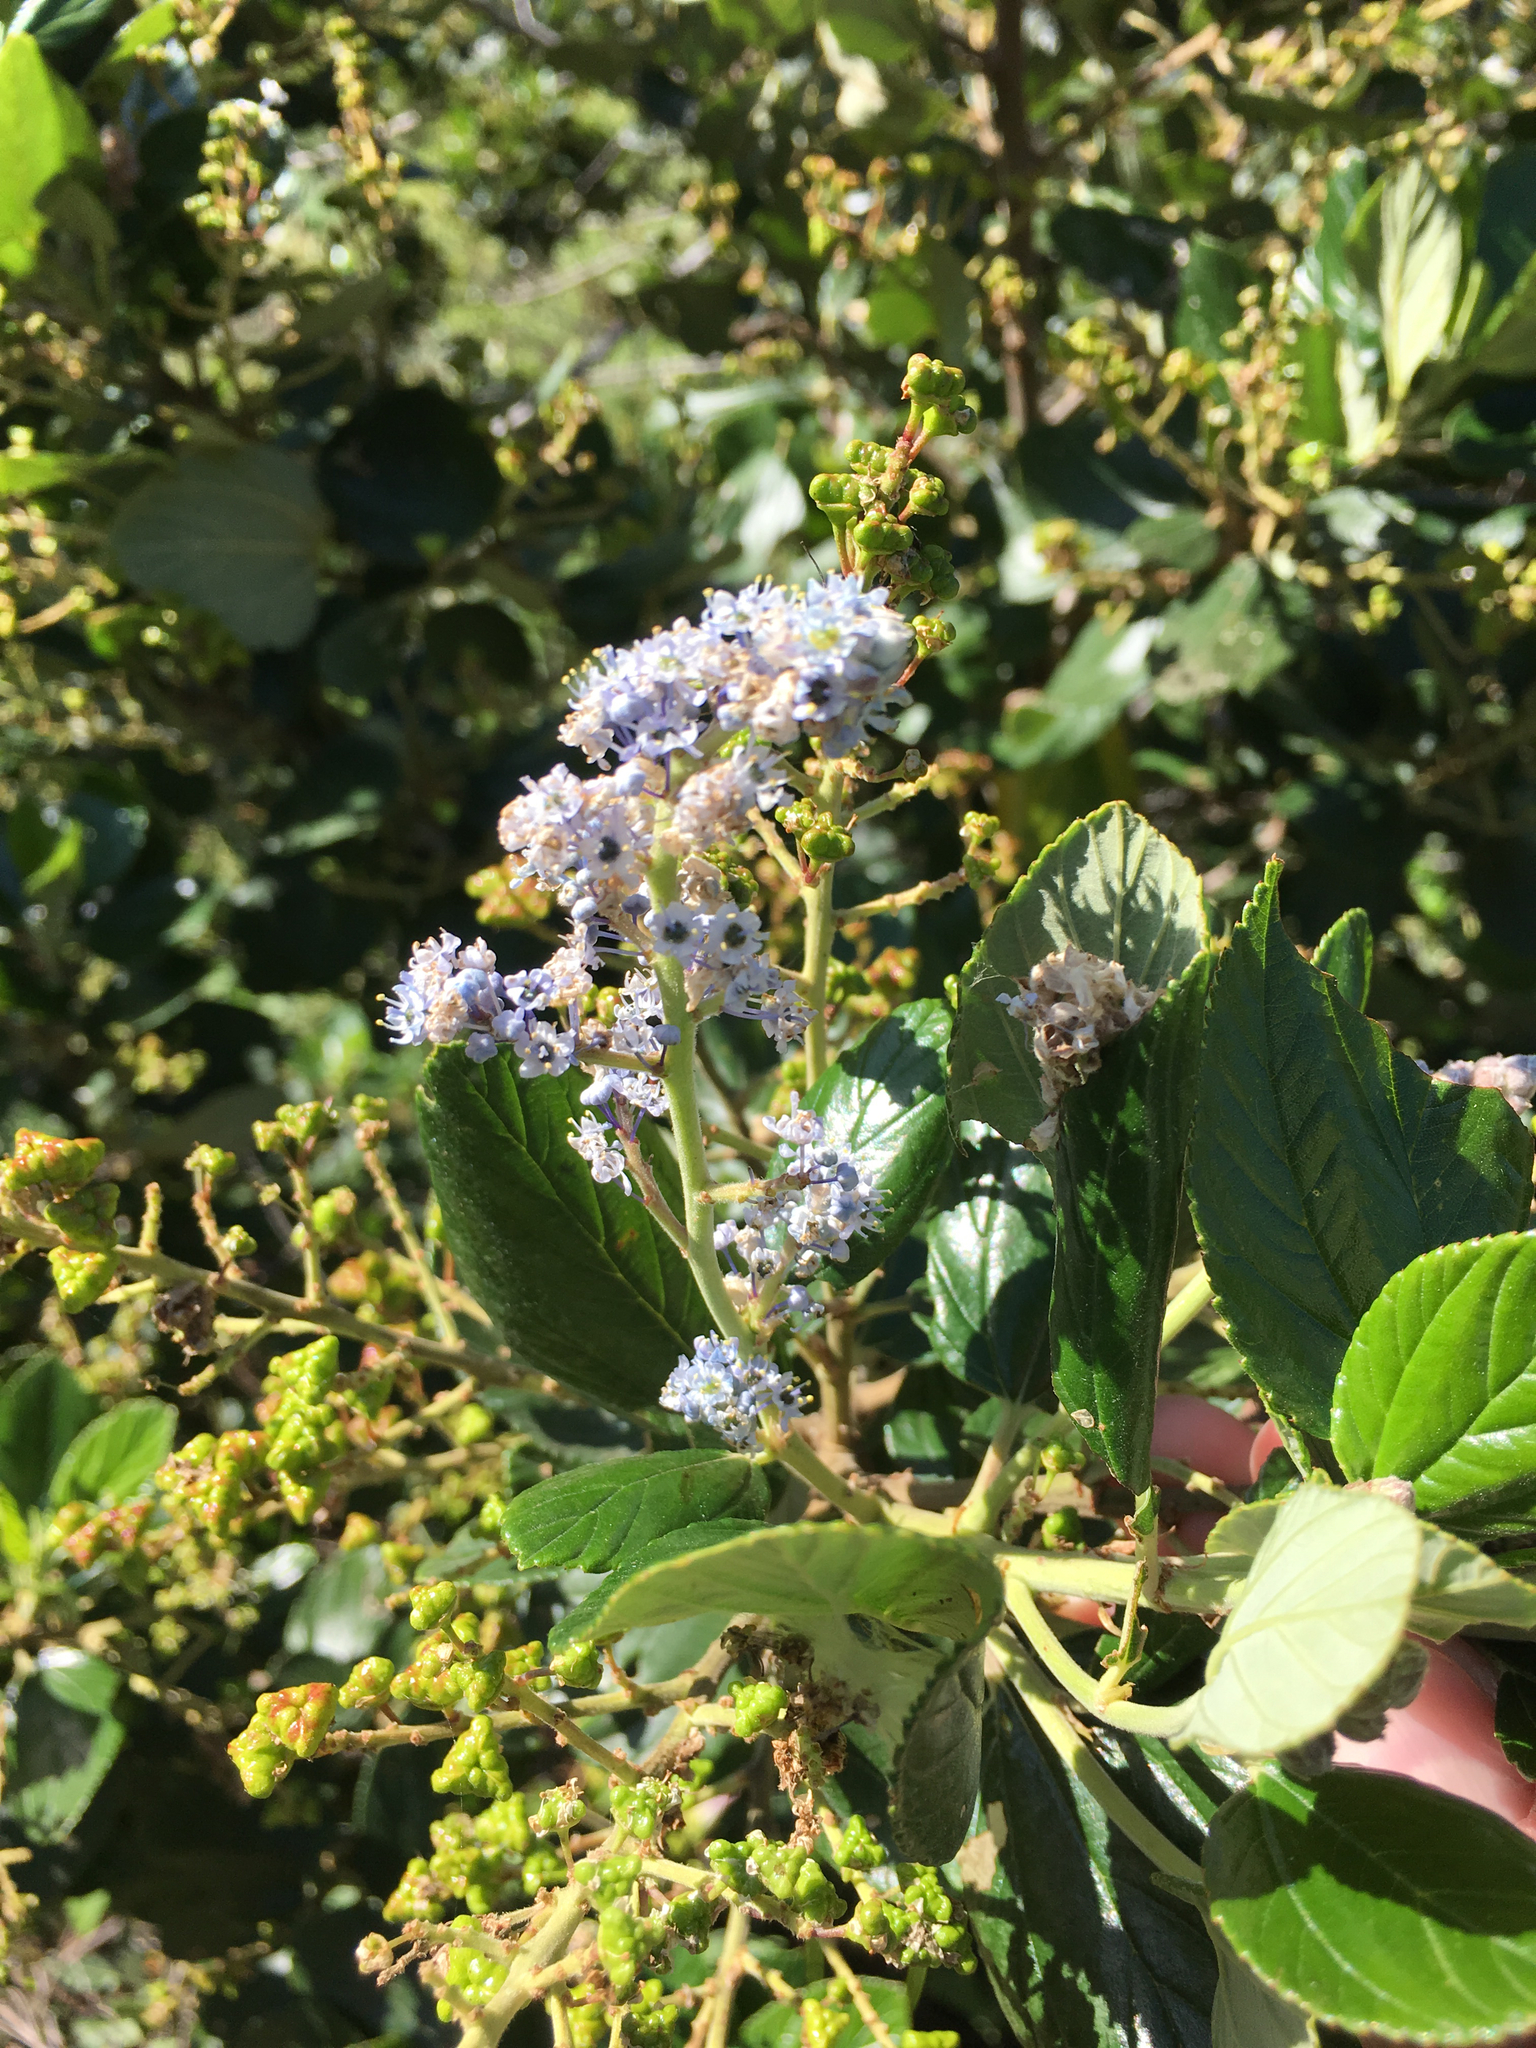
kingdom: Plantae
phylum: Tracheophyta
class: Magnoliopsida
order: Rosales
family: Rhamnaceae
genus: Ceanothus
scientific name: Ceanothus arboreus
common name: Catalina mountain-lilac
